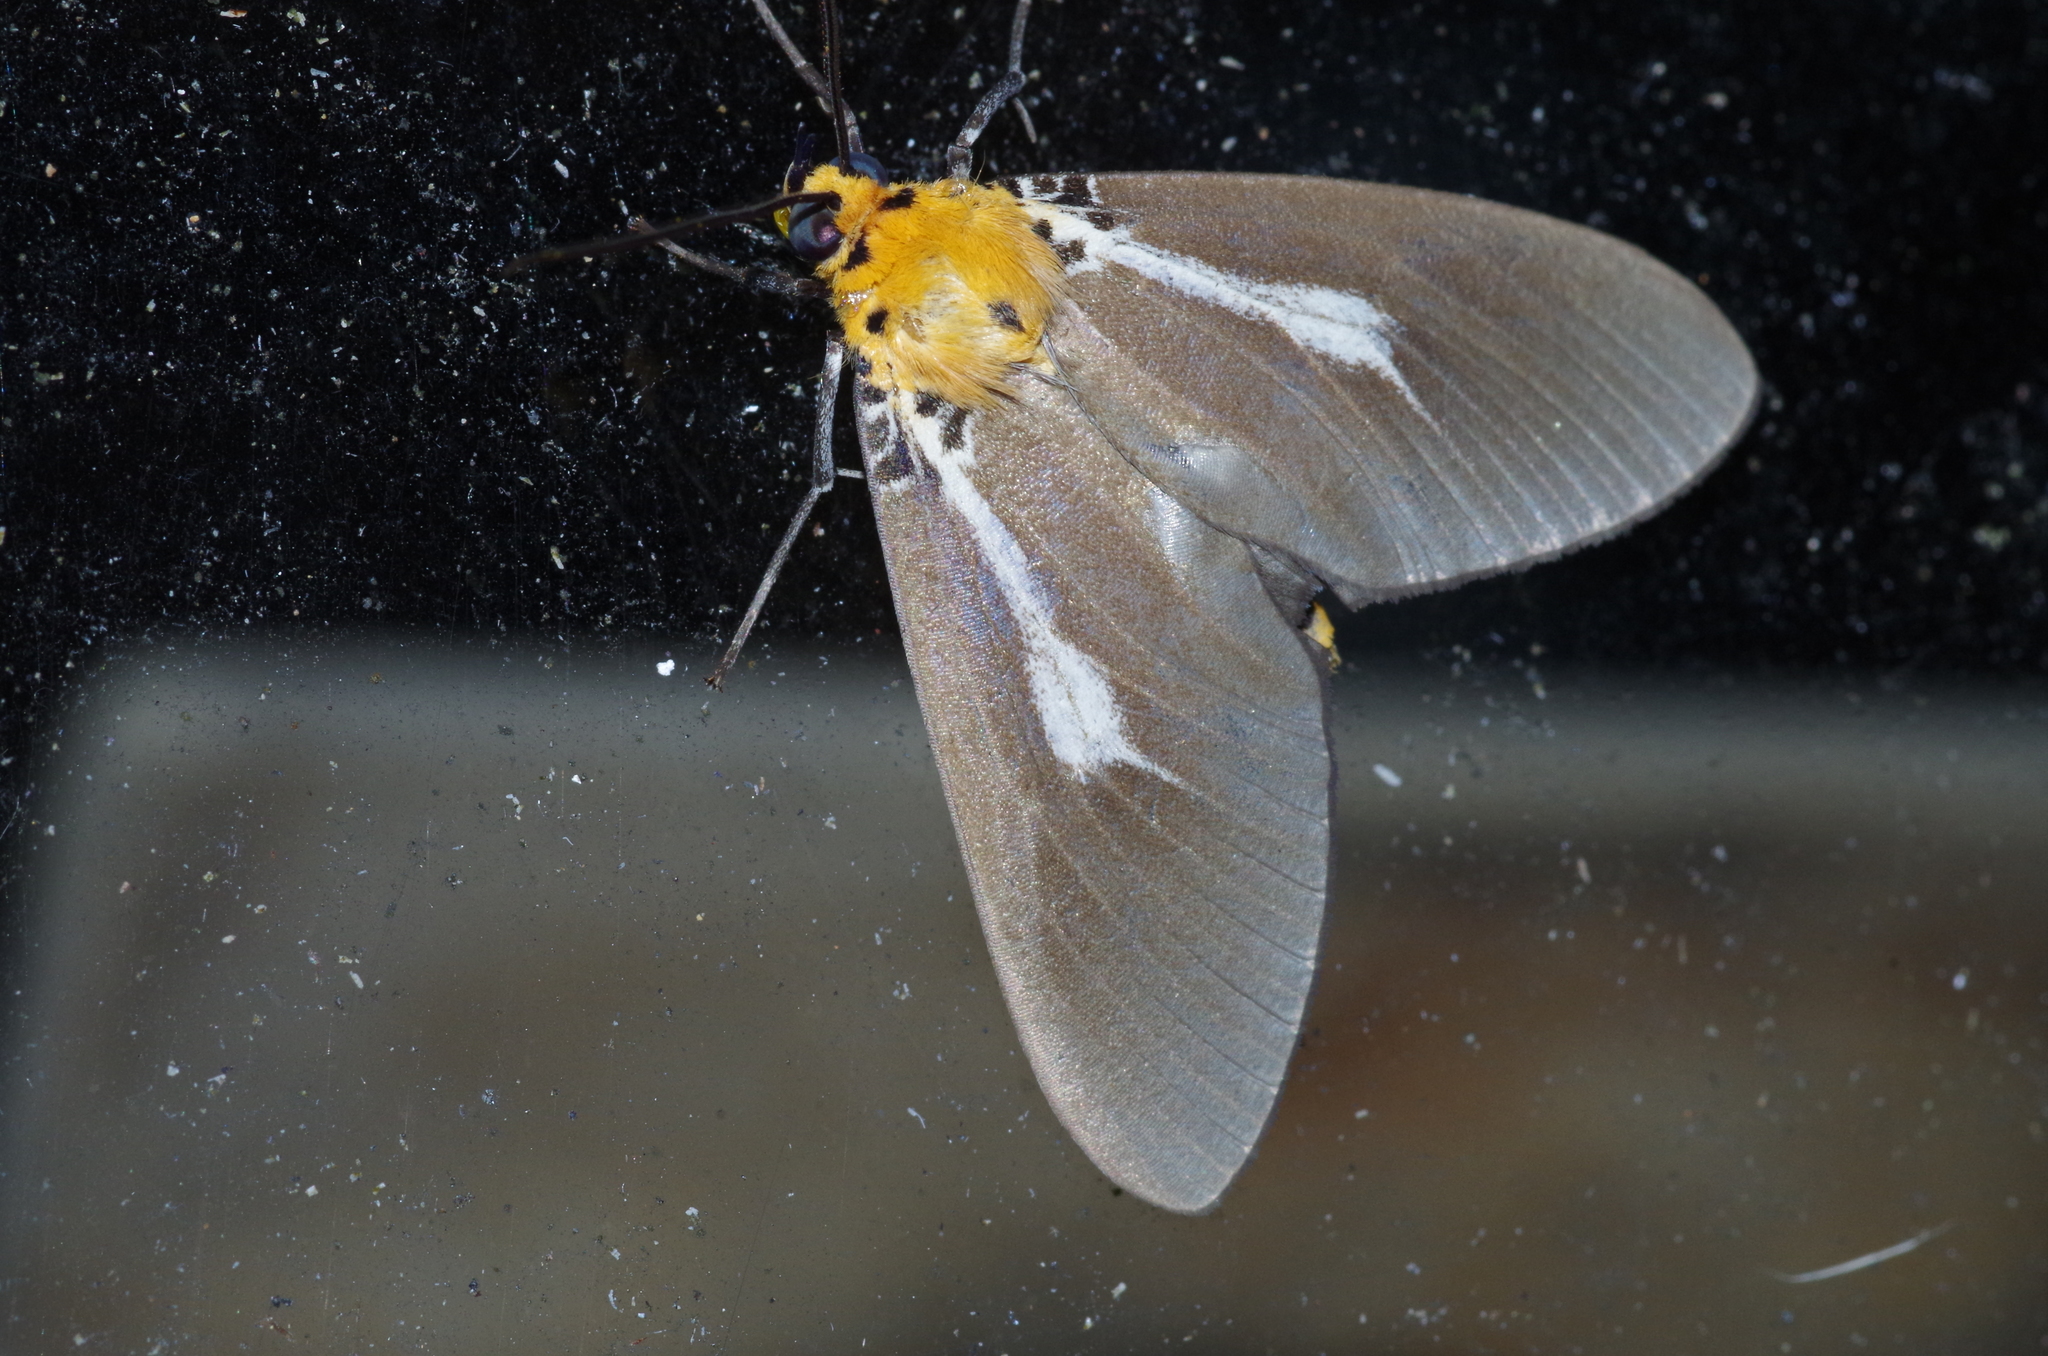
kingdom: Animalia
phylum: Arthropoda
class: Insecta
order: Lepidoptera
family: Erebidae
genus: Asota
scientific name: Asota heliconia
